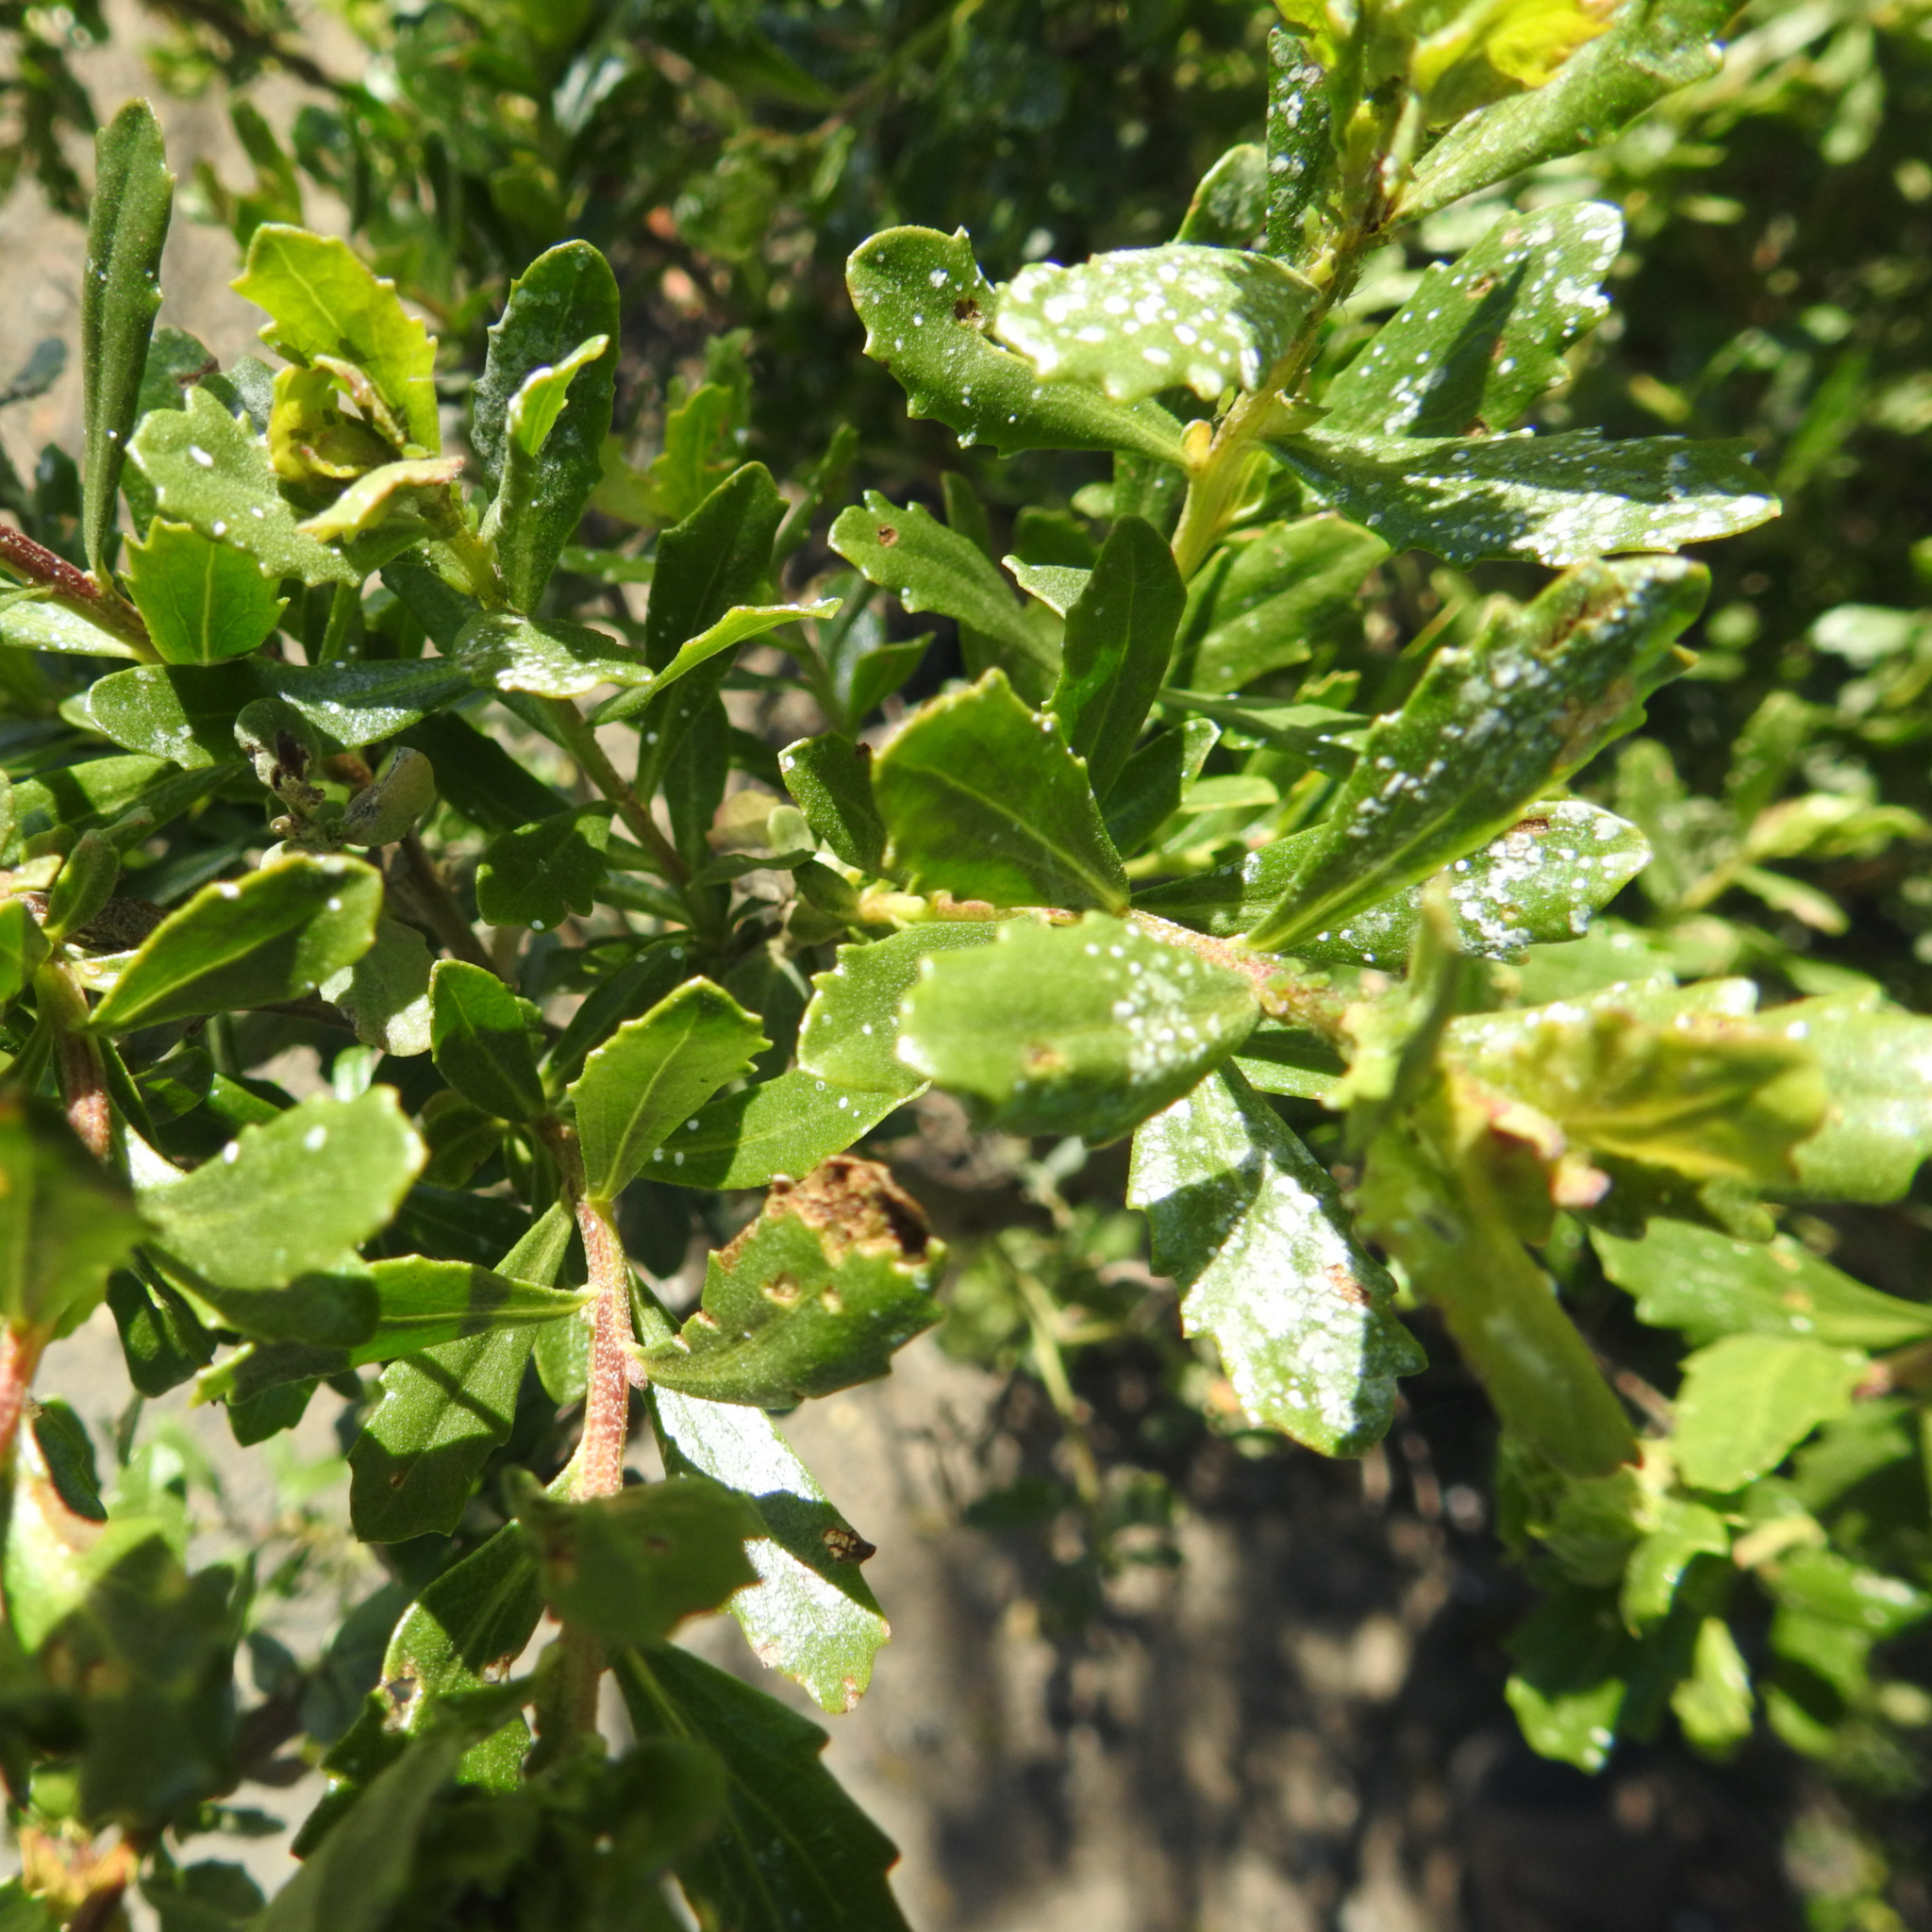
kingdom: Plantae
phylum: Tracheophyta
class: Magnoliopsida
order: Asterales
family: Asteraceae
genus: Baccharis
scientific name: Baccharis pilularis
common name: Coyotebrush
